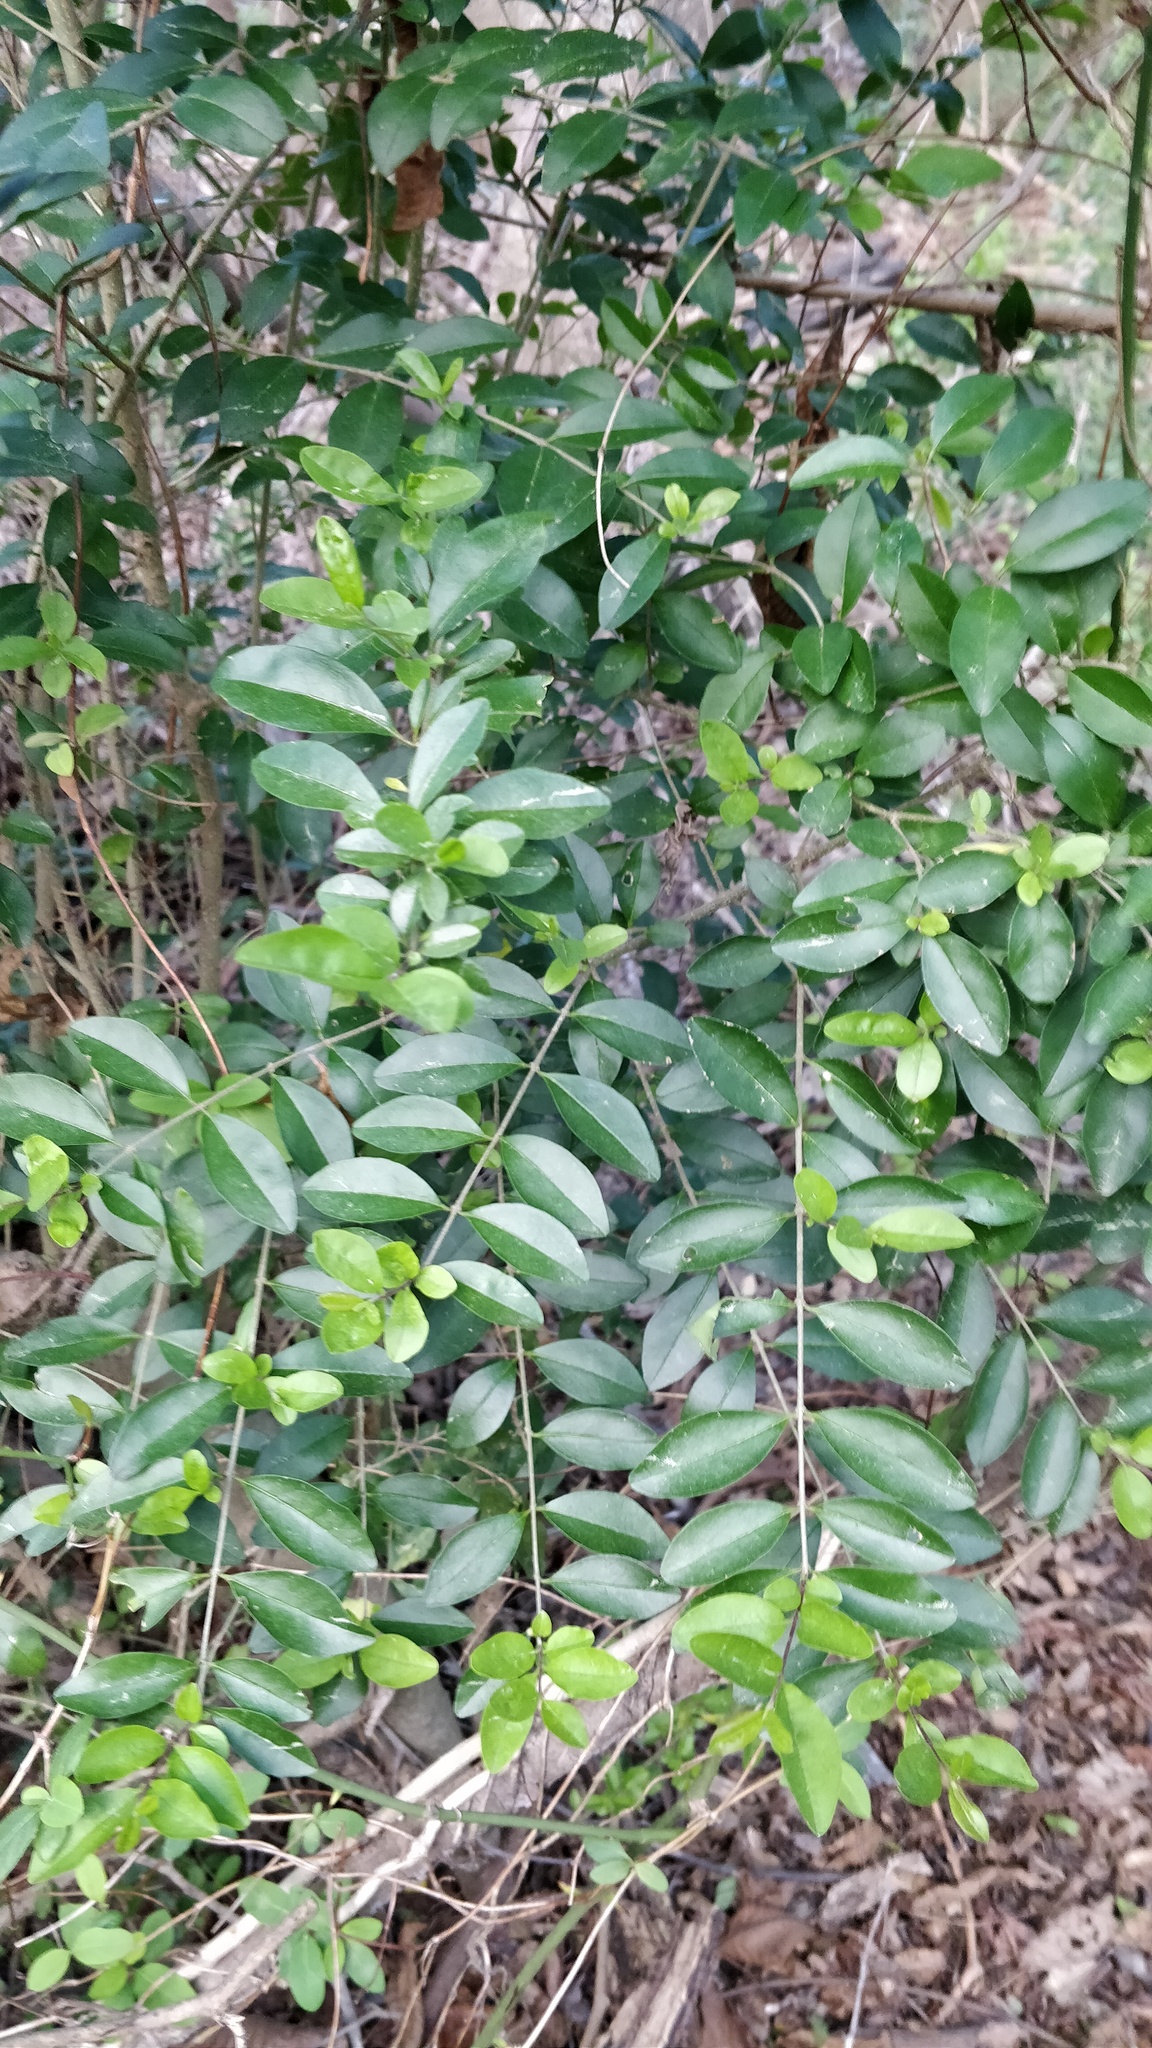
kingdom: Plantae
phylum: Tracheophyta
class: Magnoliopsida
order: Lamiales
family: Oleaceae
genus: Ligustrum
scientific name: Ligustrum sinense
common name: Chinese privet
